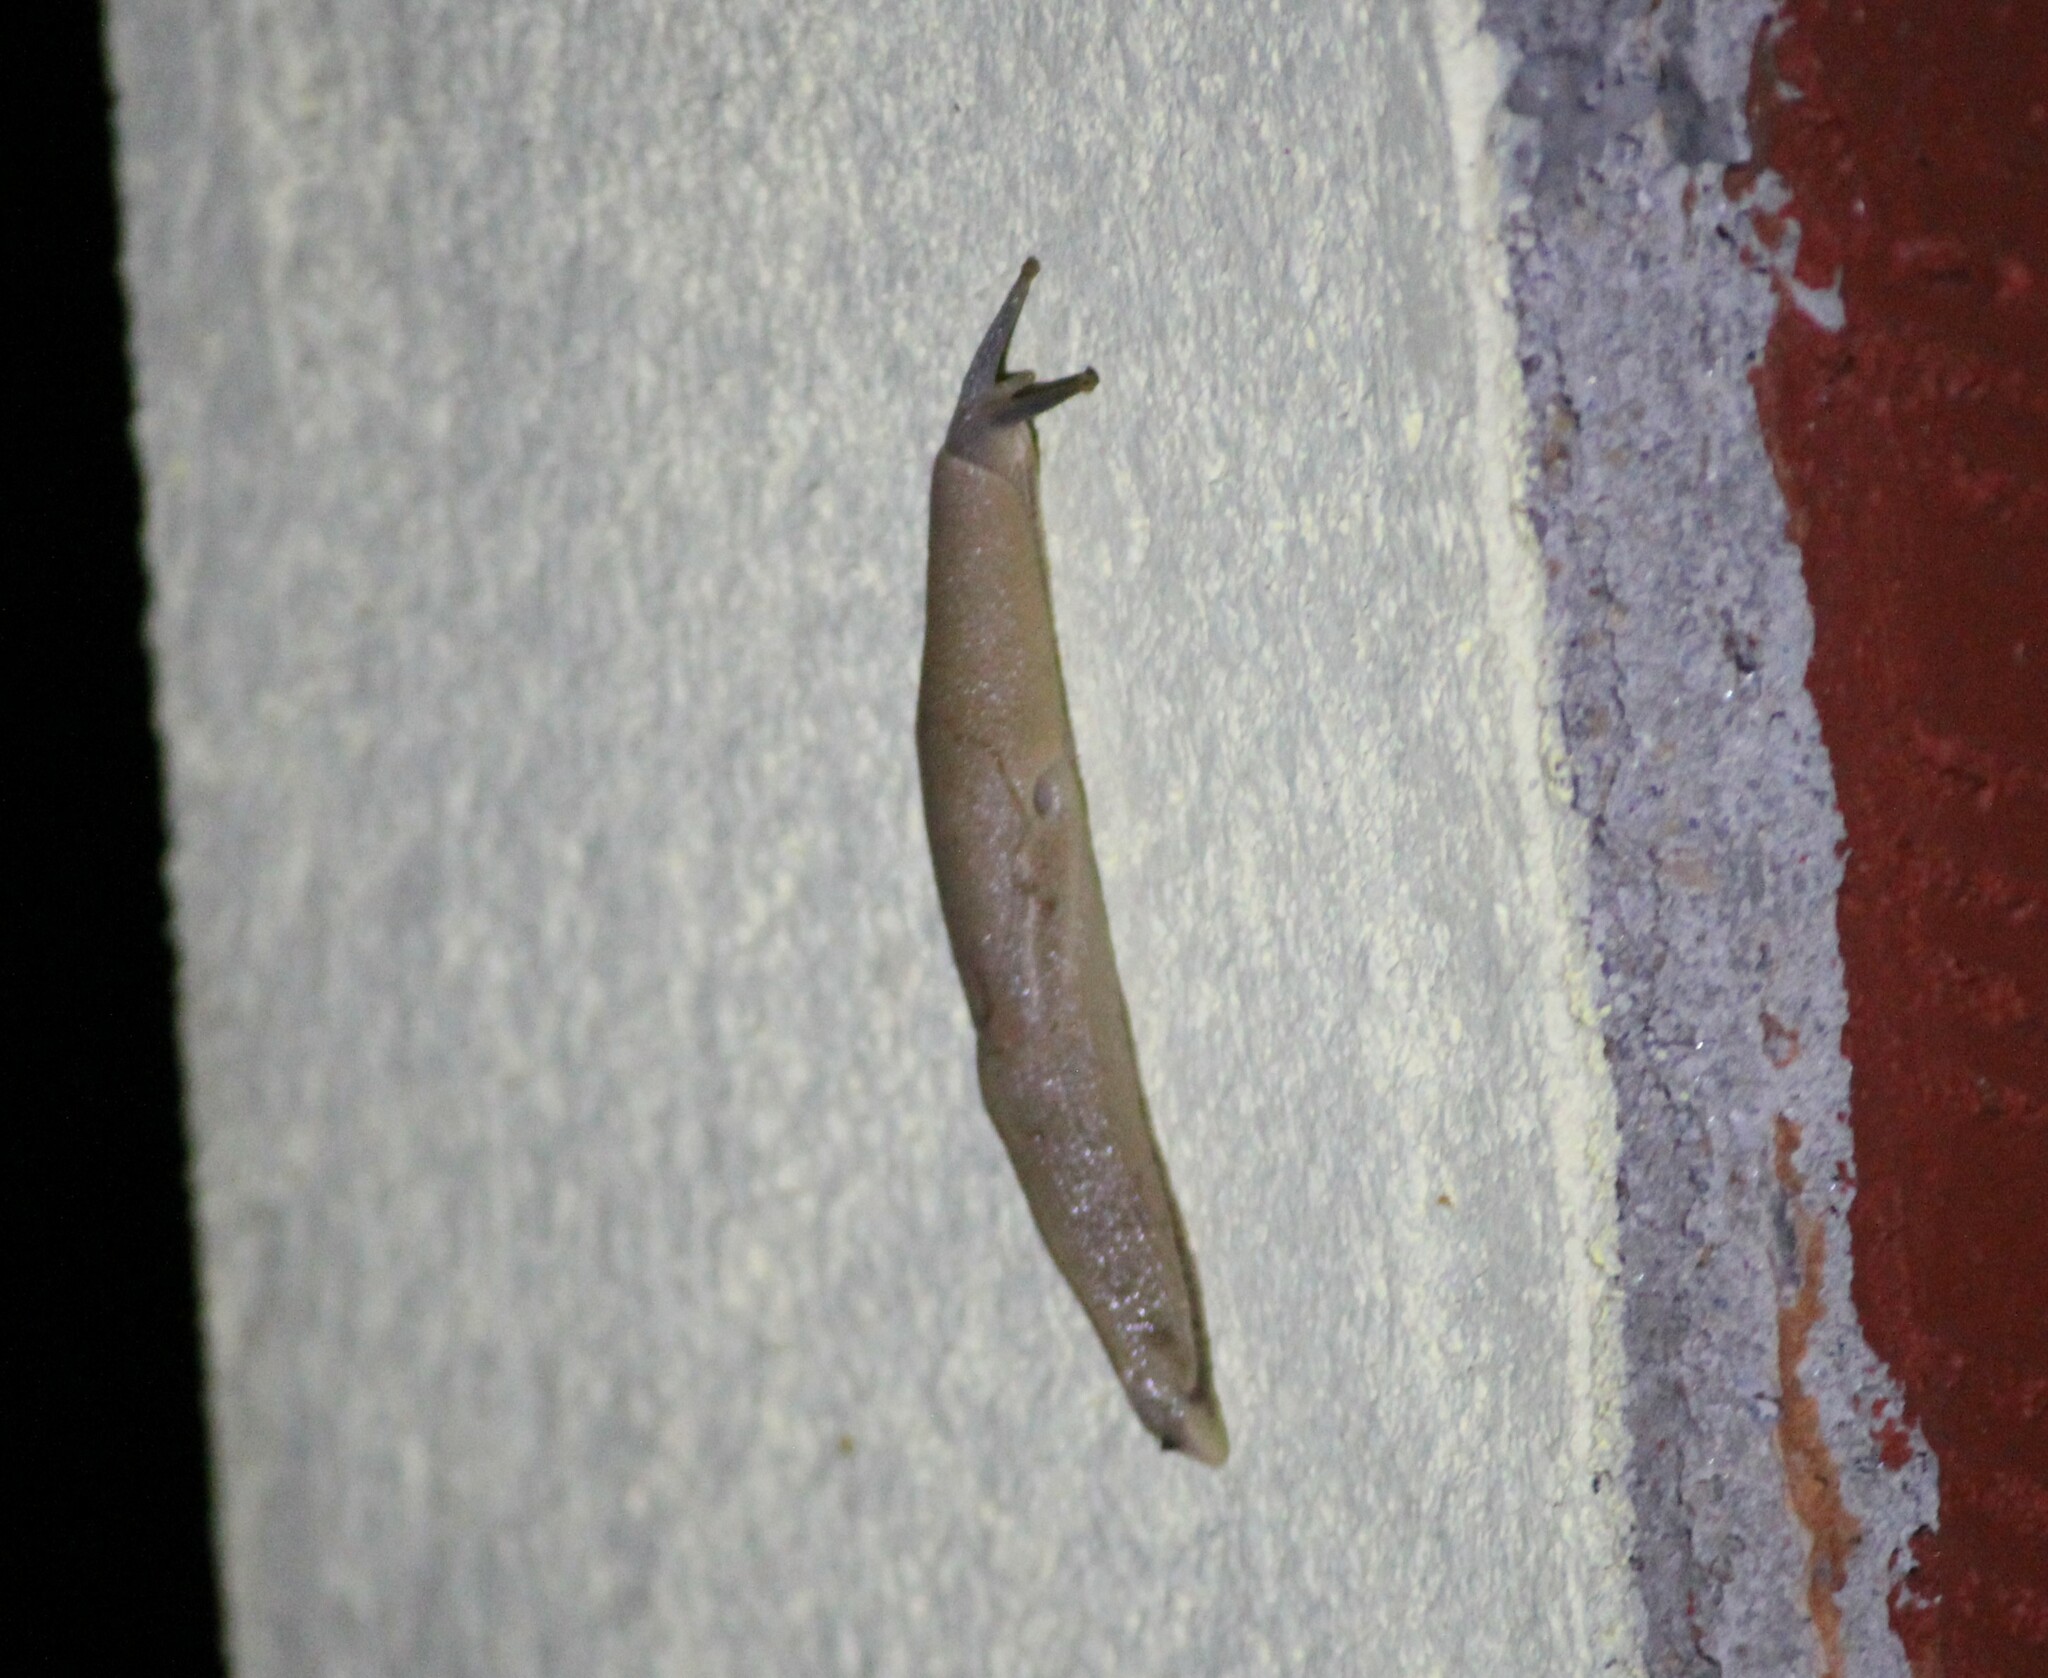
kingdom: Animalia
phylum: Mollusca
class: Gastropoda
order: Stylommatophora
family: Ariophantidae
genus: Mariaella
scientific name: Mariaella dussumieri
